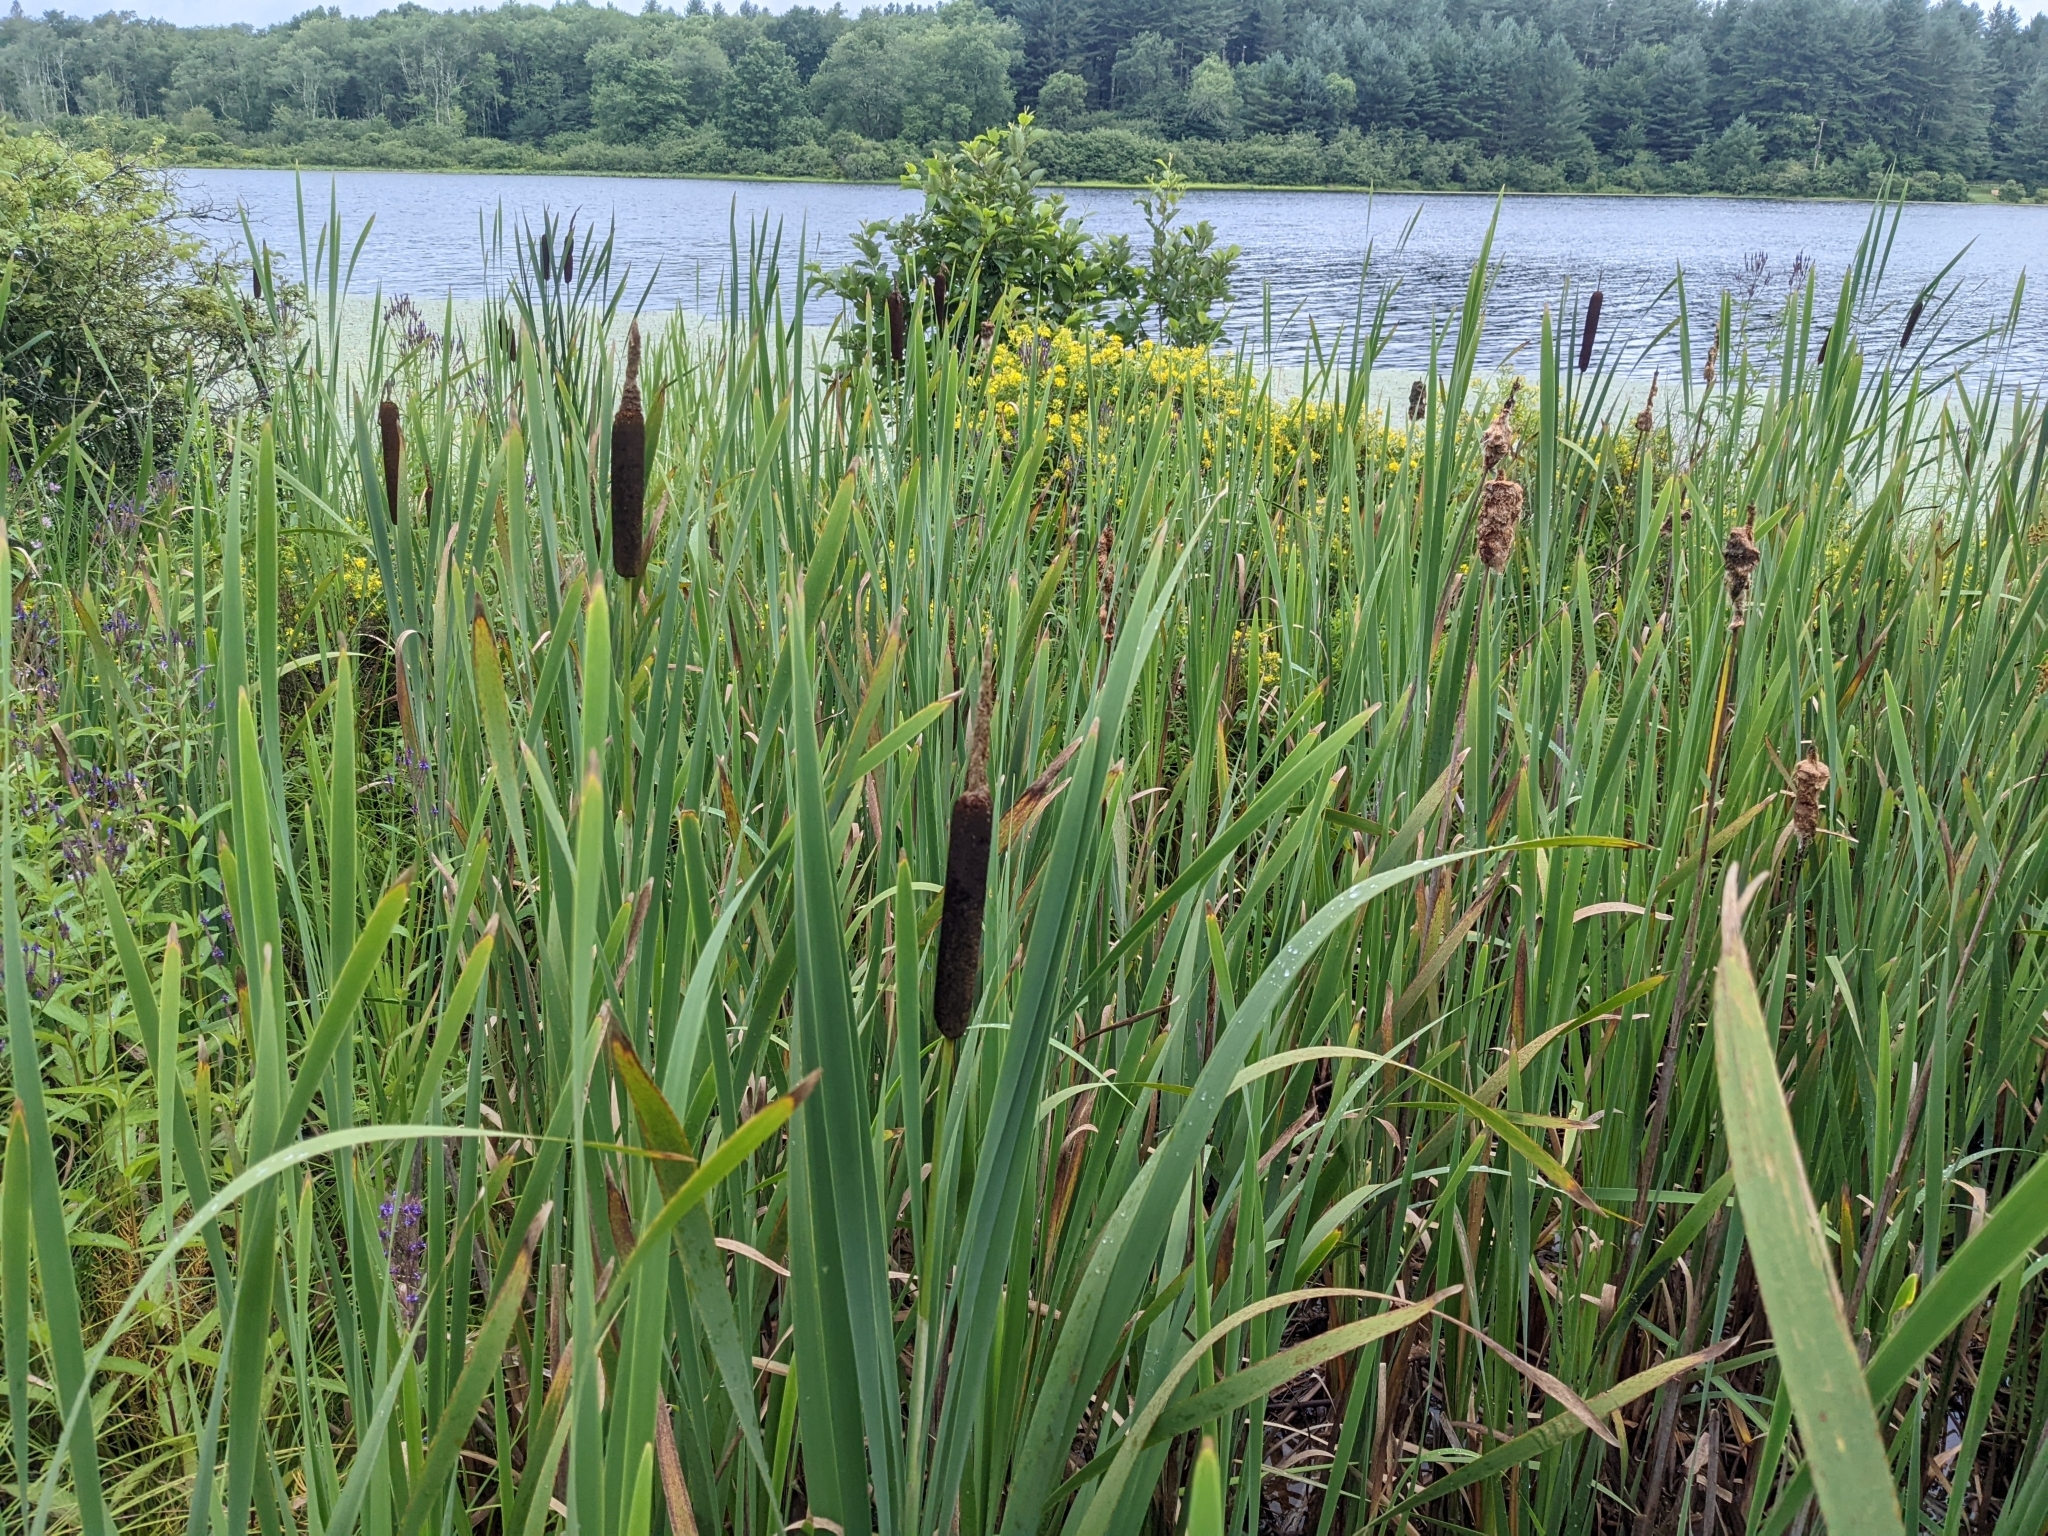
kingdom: Plantae
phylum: Tracheophyta
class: Liliopsida
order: Poales
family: Typhaceae
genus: Typha
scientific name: Typha latifolia
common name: Broadleaf cattail
